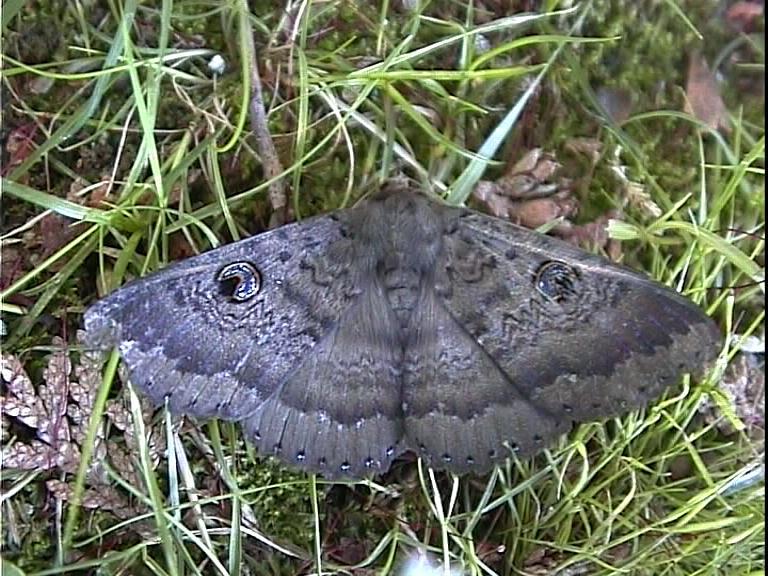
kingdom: Animalia
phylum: Arthropoda
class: Insecta
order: Lepidoptera
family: Erebidae
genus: Dasypodia
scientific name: Dasypodia cymatodes
